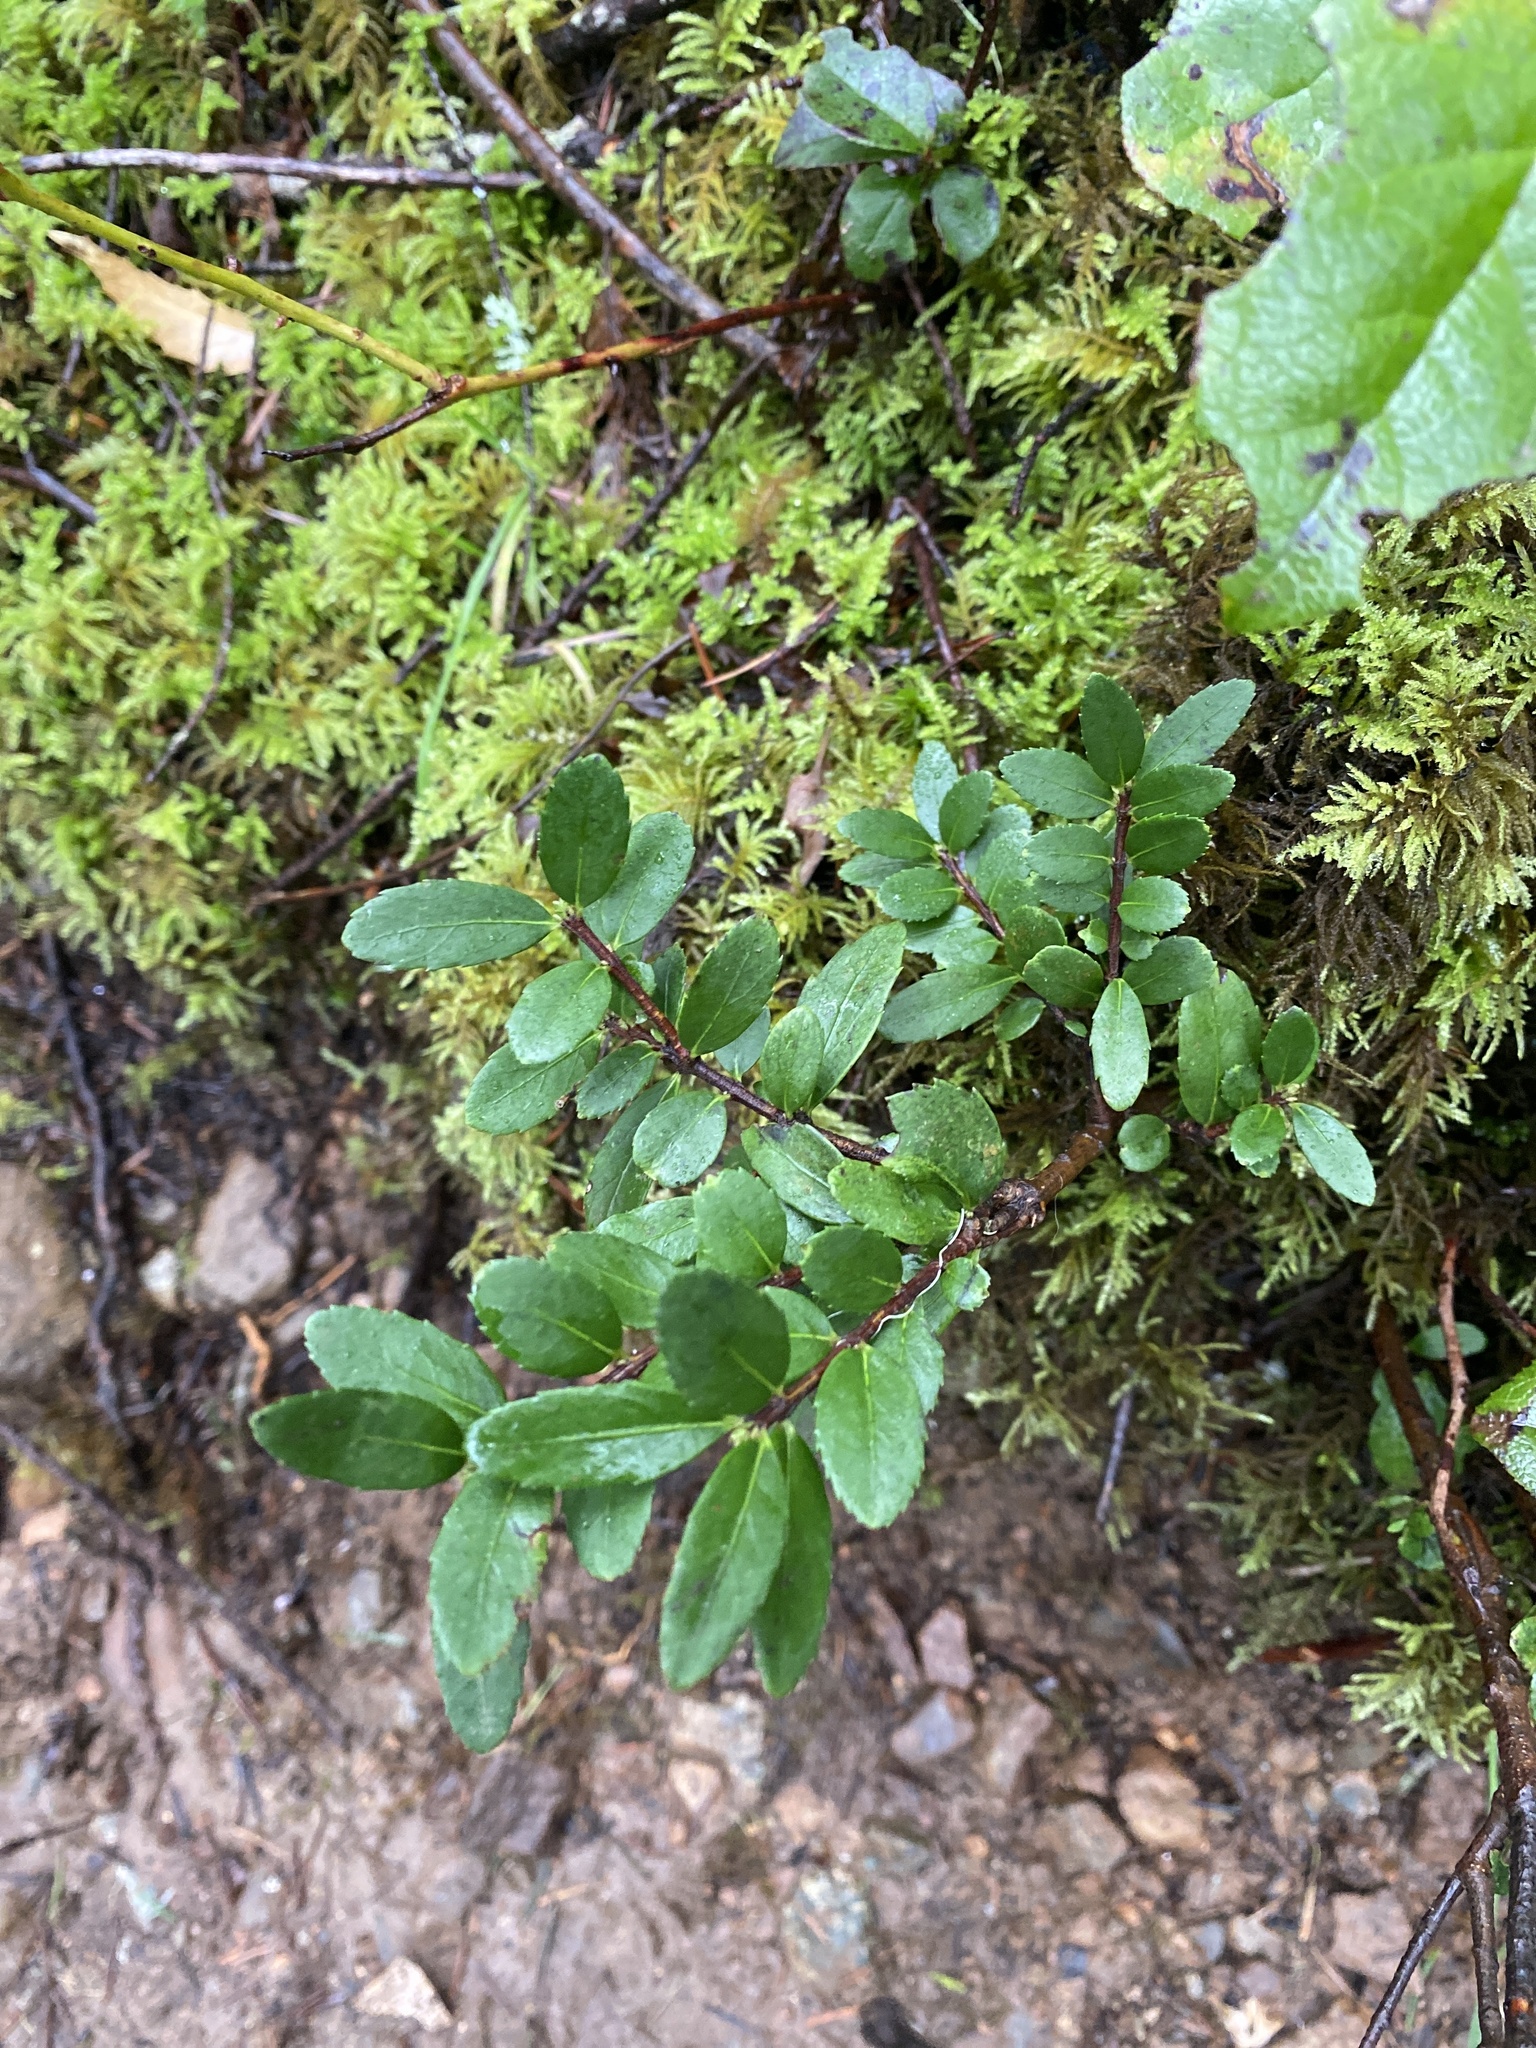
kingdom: Plantae
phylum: Tracheophyta
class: Magnoliopsida
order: Celastrales
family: Celastraceae
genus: Paxistima
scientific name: Paxistima myrsinites
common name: Mountain-lover
